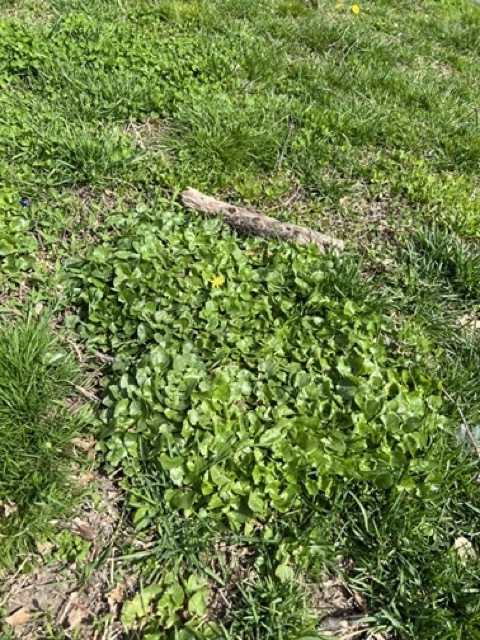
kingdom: Plantae
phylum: Tracheophyta
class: Magnoliopsida
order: Ranunculales
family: Ranunculaceae
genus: Ficaria
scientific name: Ficaria verna
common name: Lesser celandine
